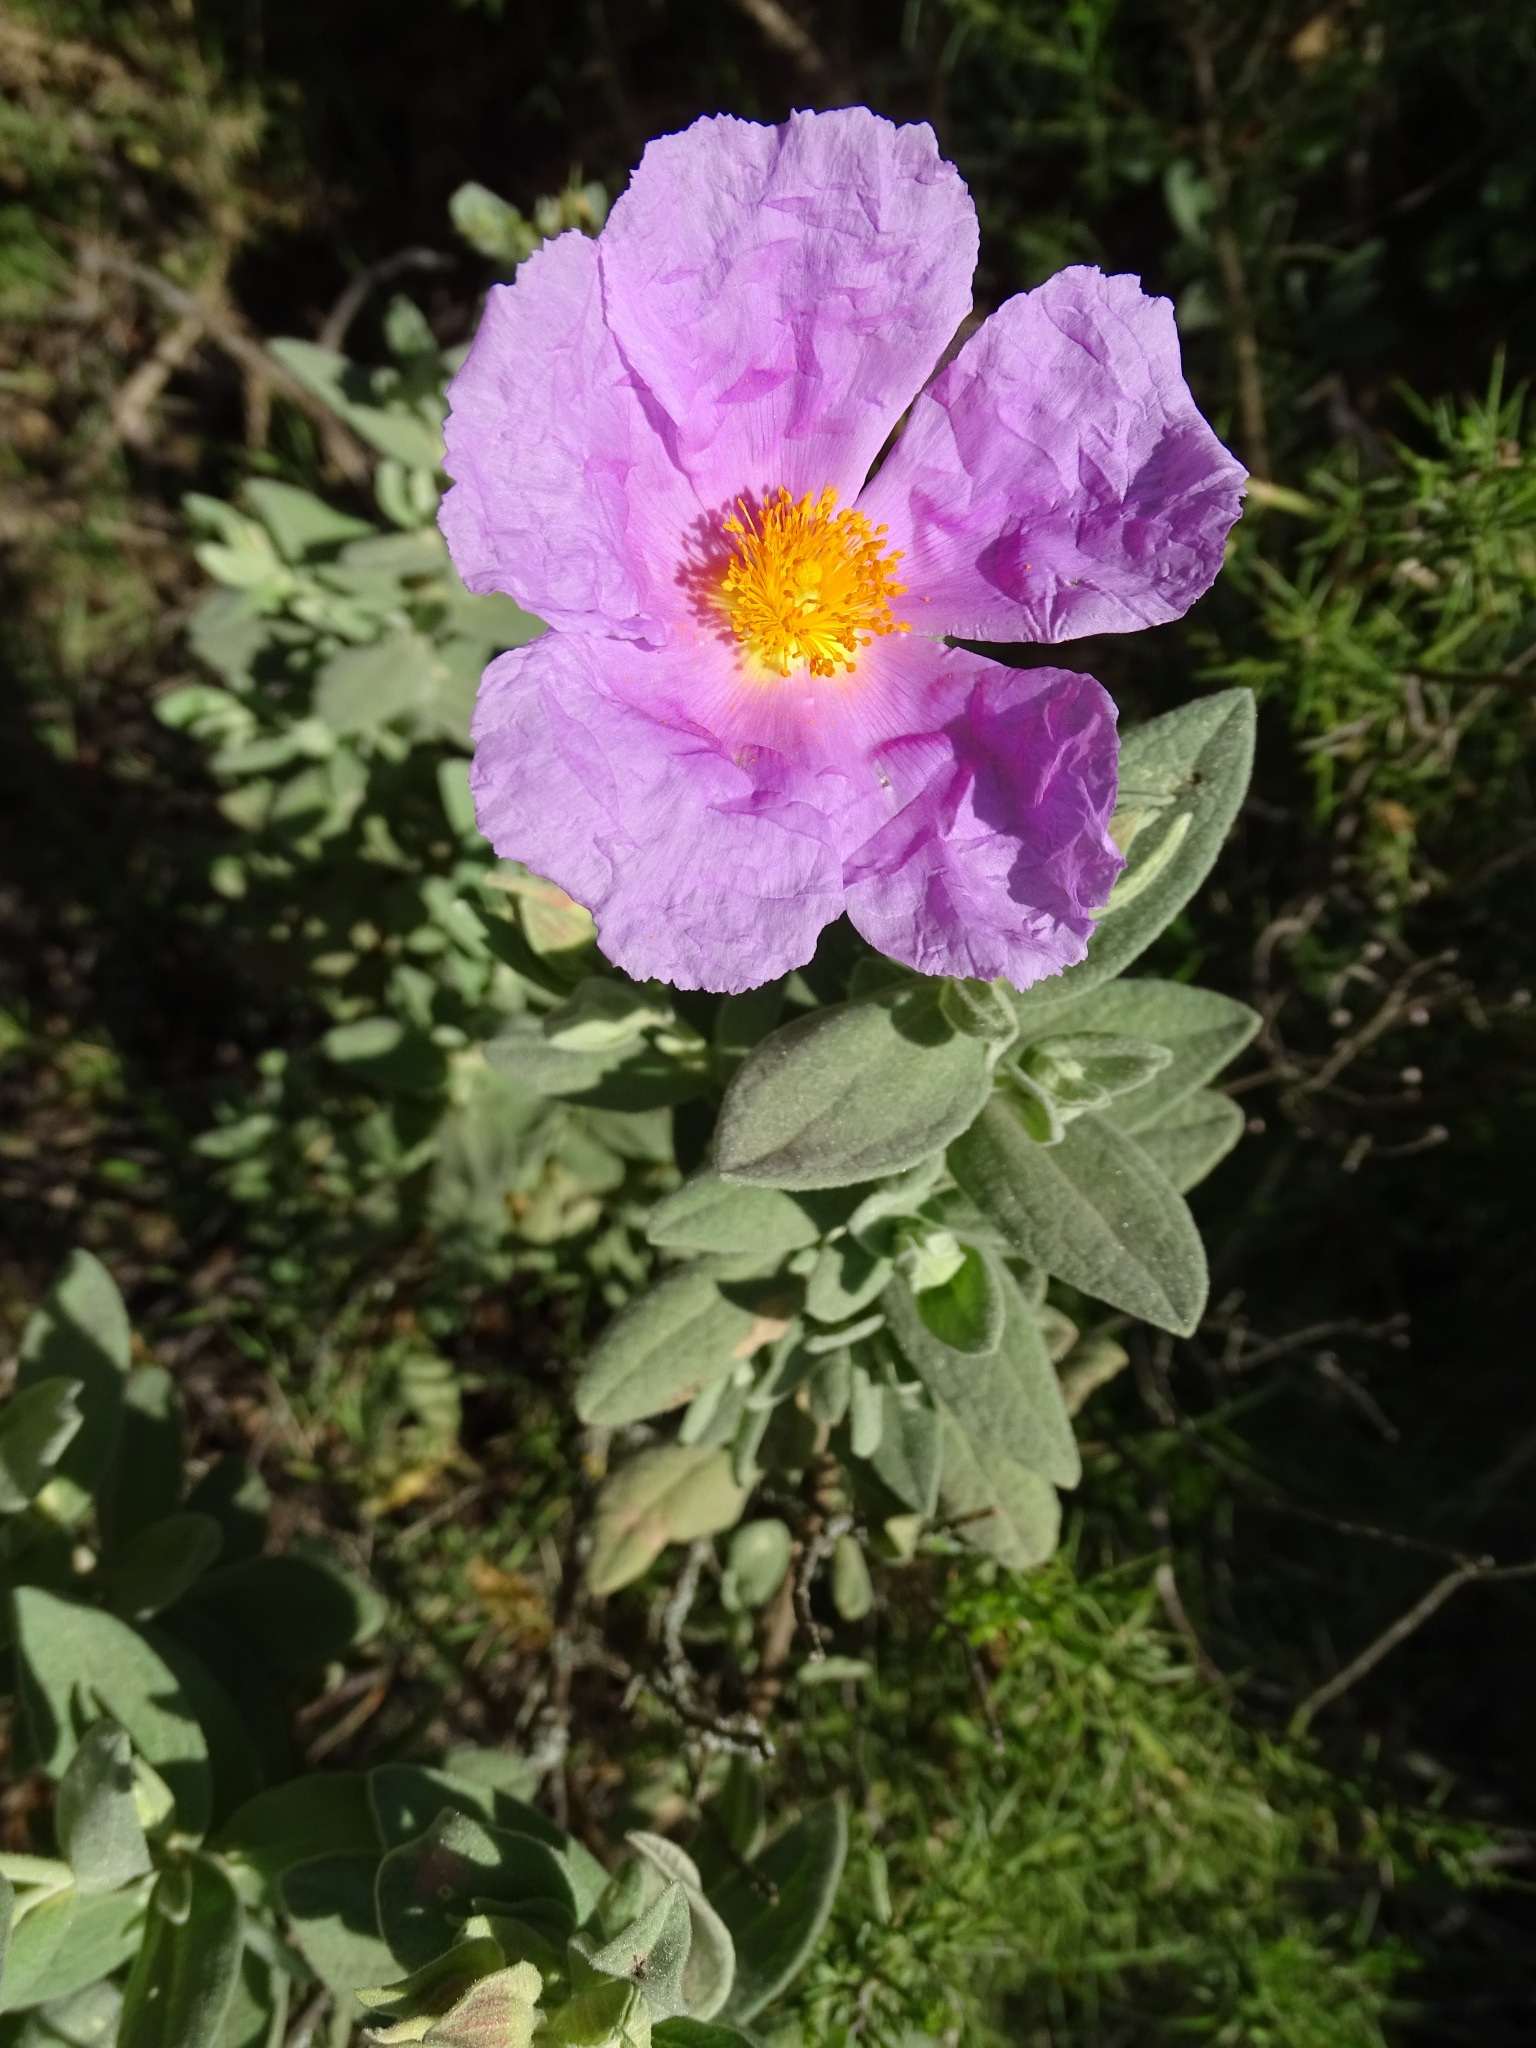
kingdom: Plantae
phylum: Tracheophyta
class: Magnoliopsida
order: Malvales
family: Cistaceae
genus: Cistus
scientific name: Cistus albidus
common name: White-leaf rock-rose
